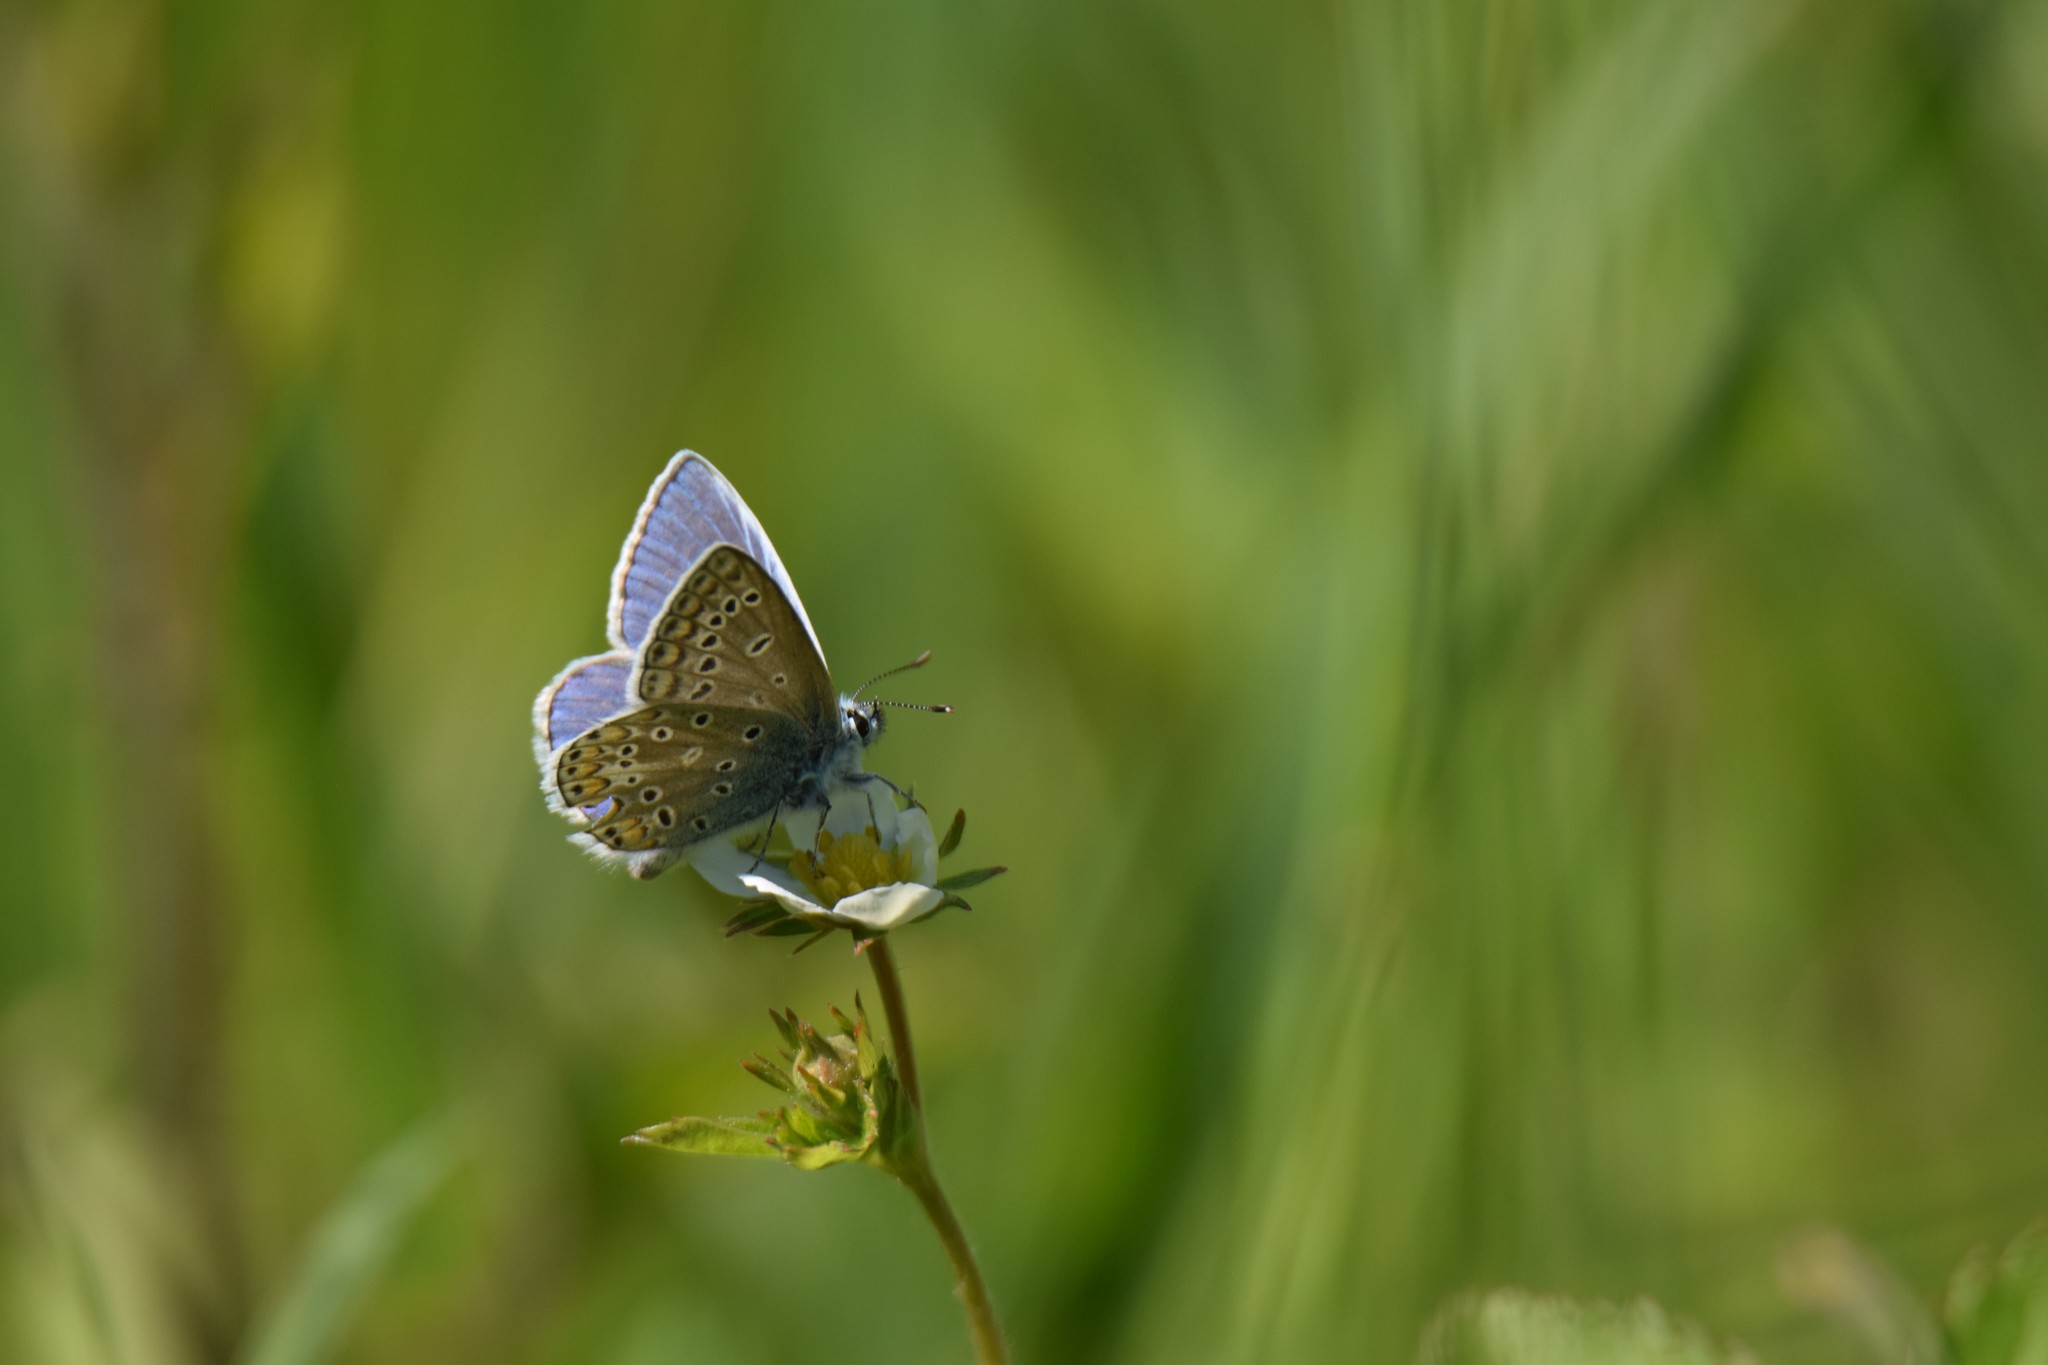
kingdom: Animalia
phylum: Arthropoda
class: Insecta
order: Lepidoptera
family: Lycaenidae
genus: Polyommatus
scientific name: Polyommatus icarus
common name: Common blue
